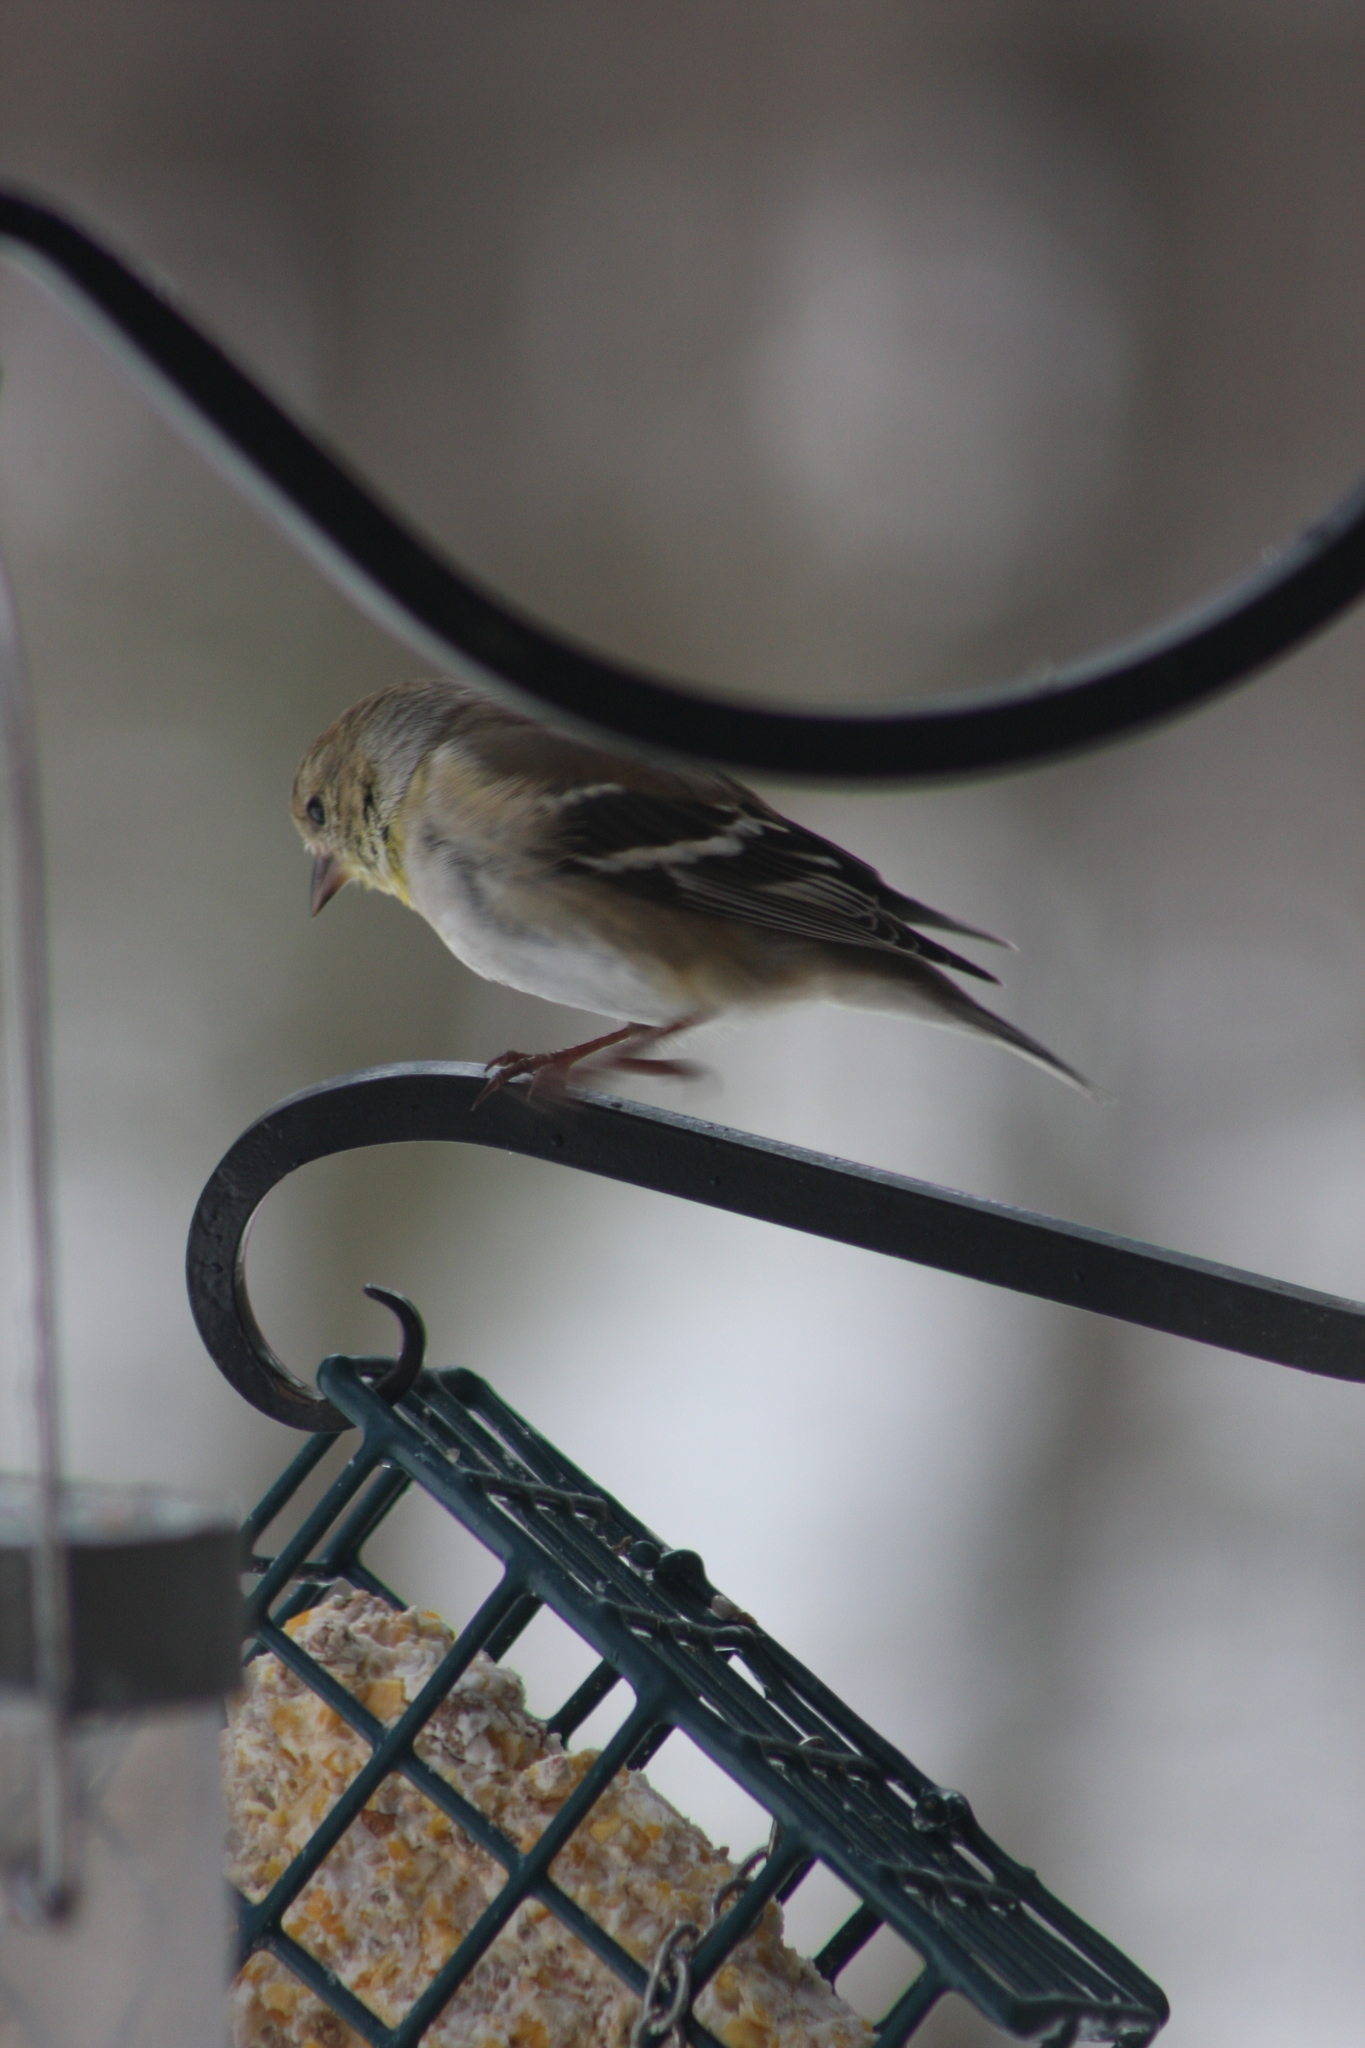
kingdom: Animalia
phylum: Chordata
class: Aves
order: Passeriformes
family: Fringillidae
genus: Spinus
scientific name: Spinus tristis
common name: American goldfinch
